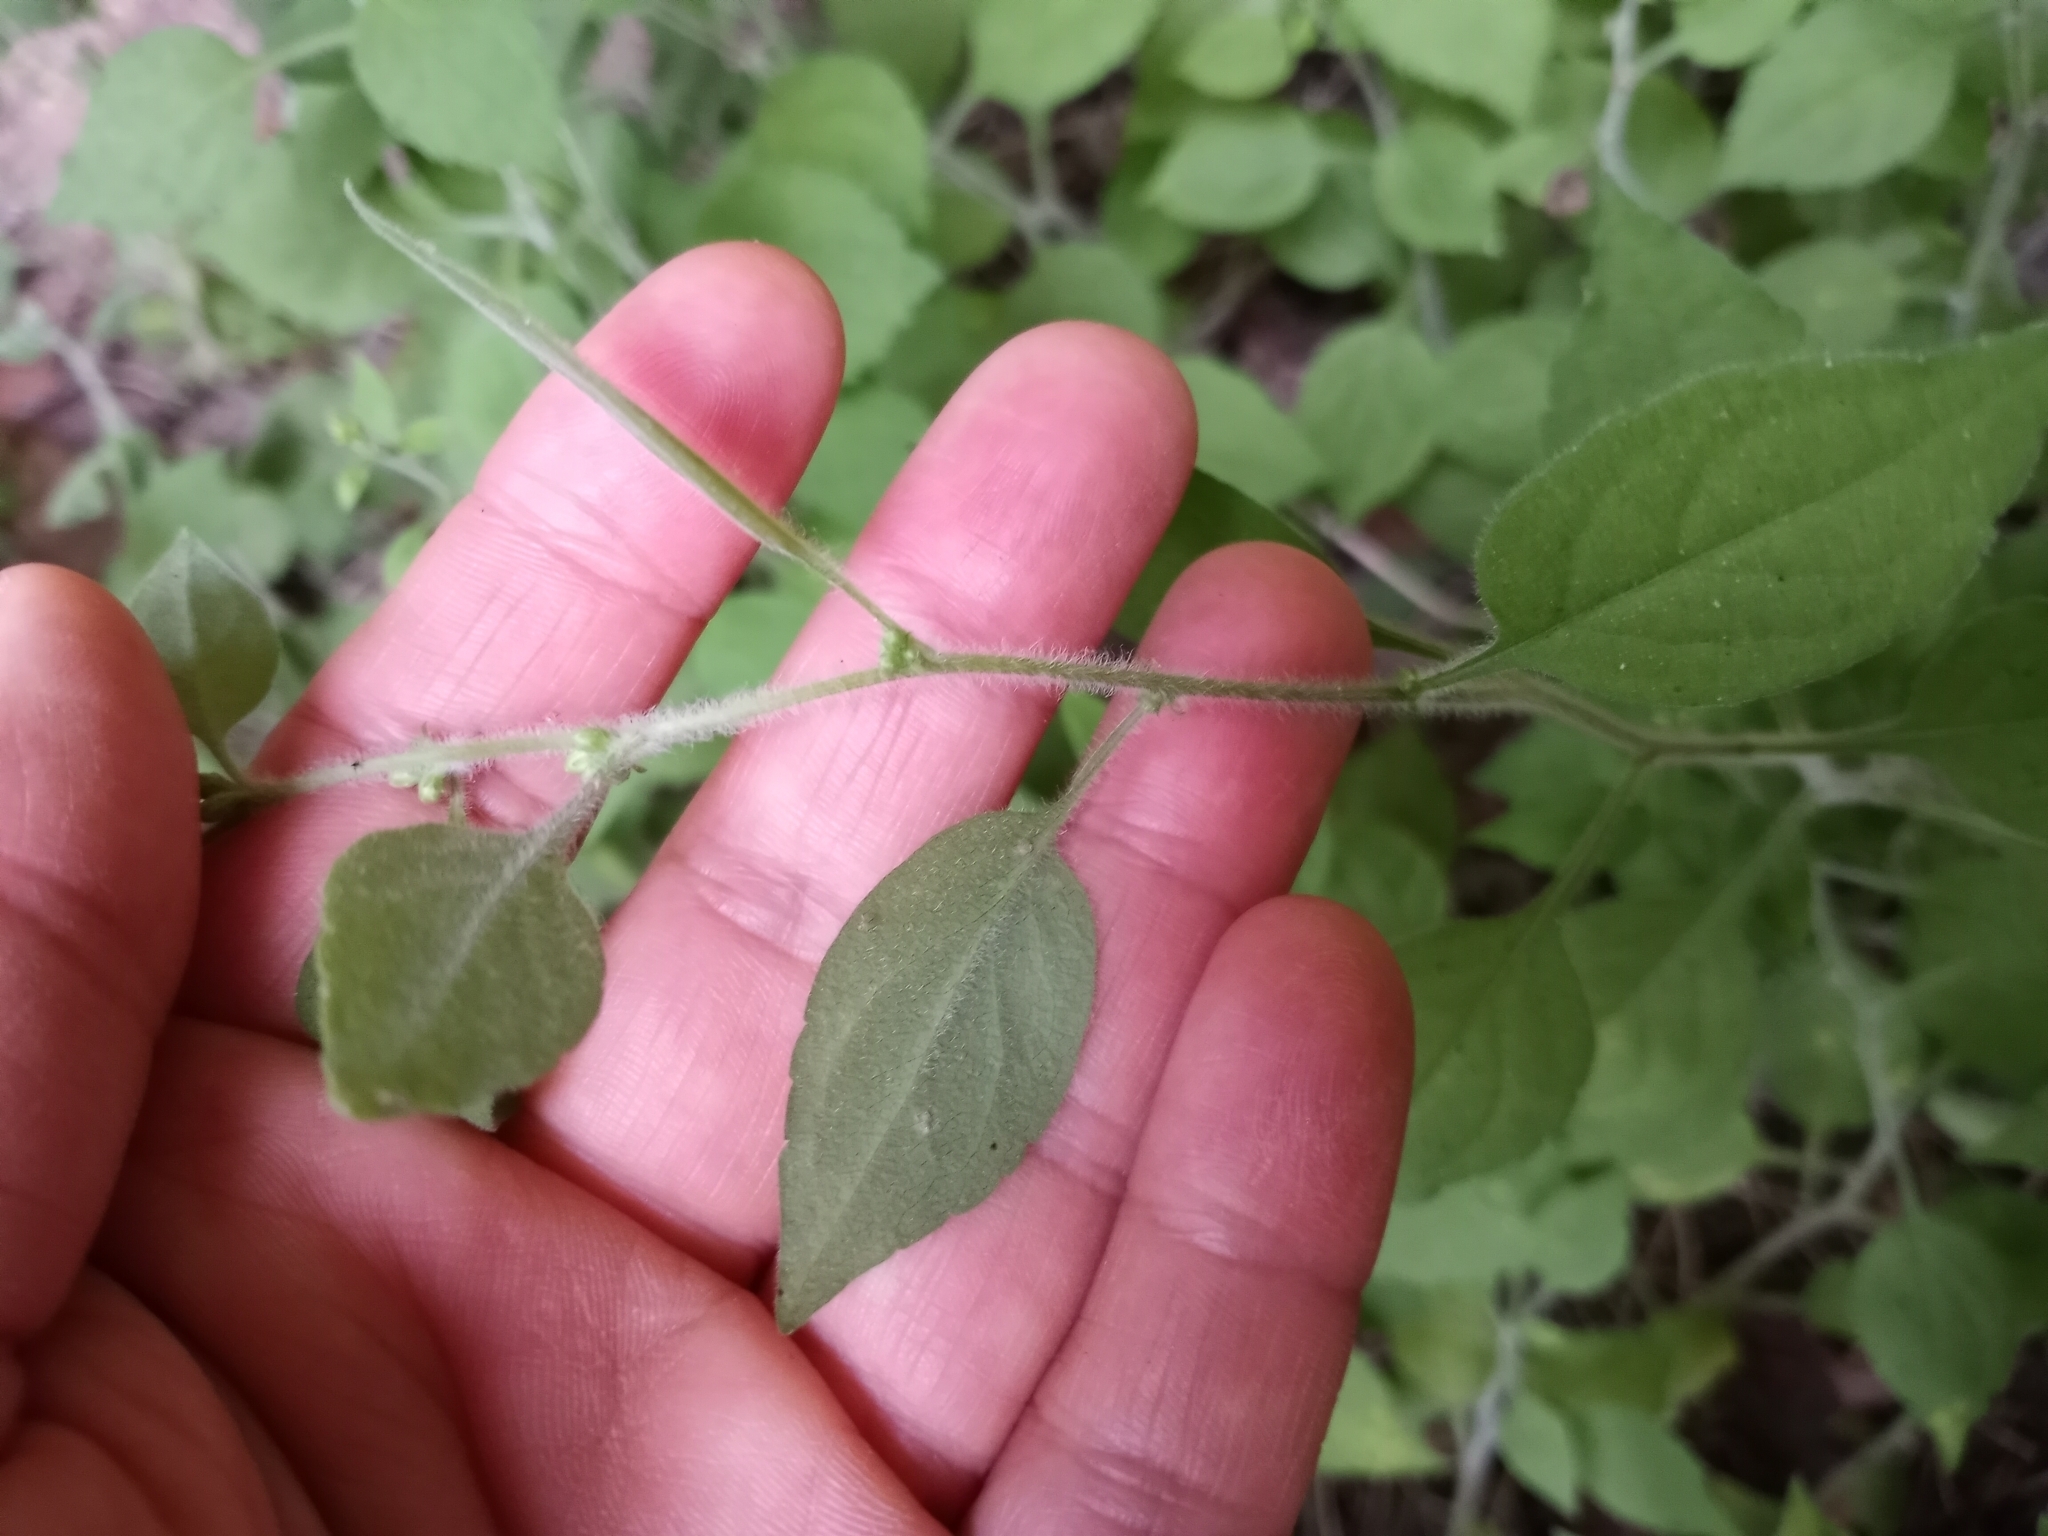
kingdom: Plantae
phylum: Tracheophyta
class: Magnoliopsida
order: Asterales
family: Asteraceae
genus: Solidago
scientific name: Solidago albopilosa
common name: White-hair goldenrod
